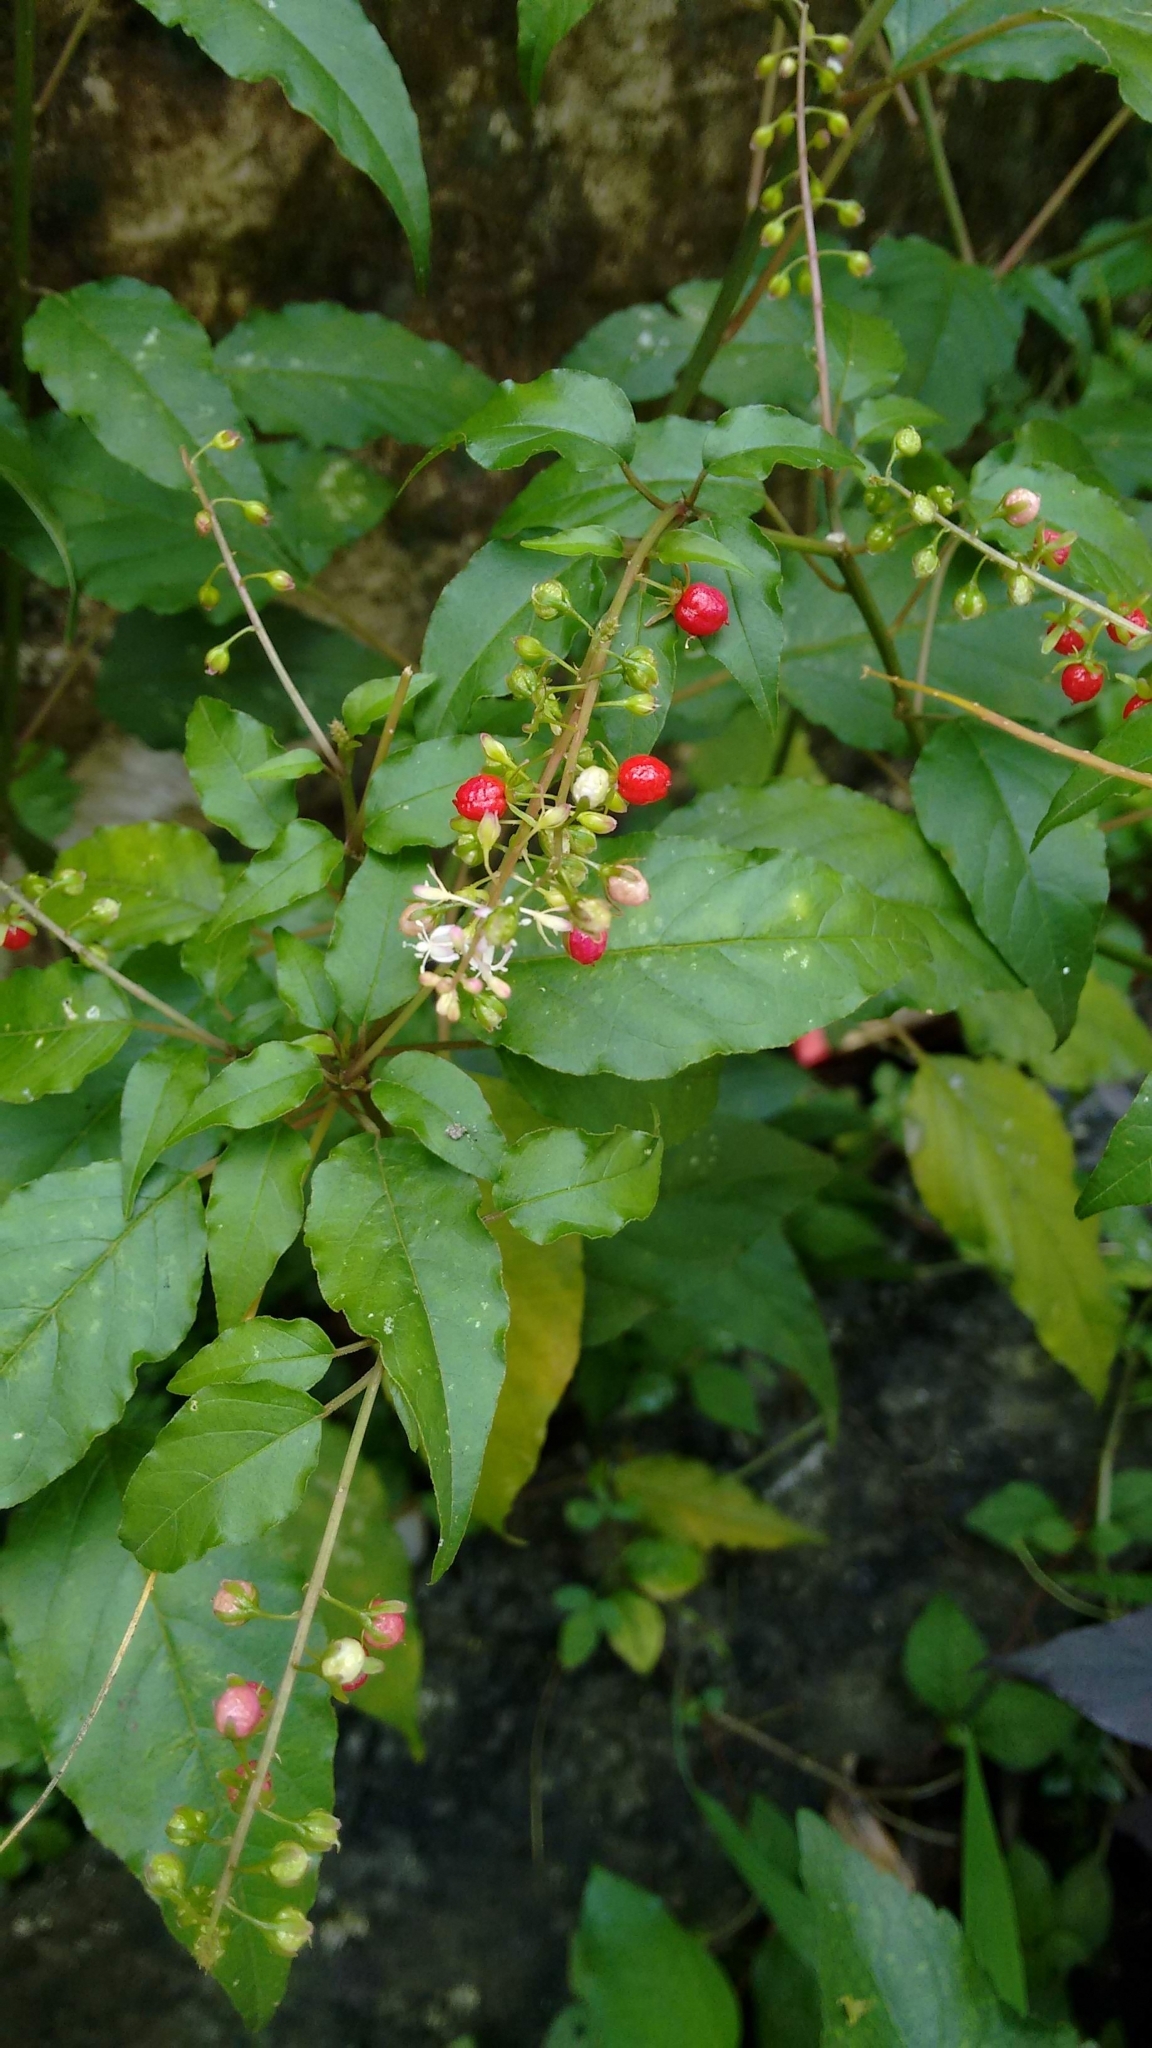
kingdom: Plantae
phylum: Tracheophyta
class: Magnoliopsida
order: Caryophyllales
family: Phytolaccaceae
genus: Rivina
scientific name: Rivina humilis
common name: Rougeplant
